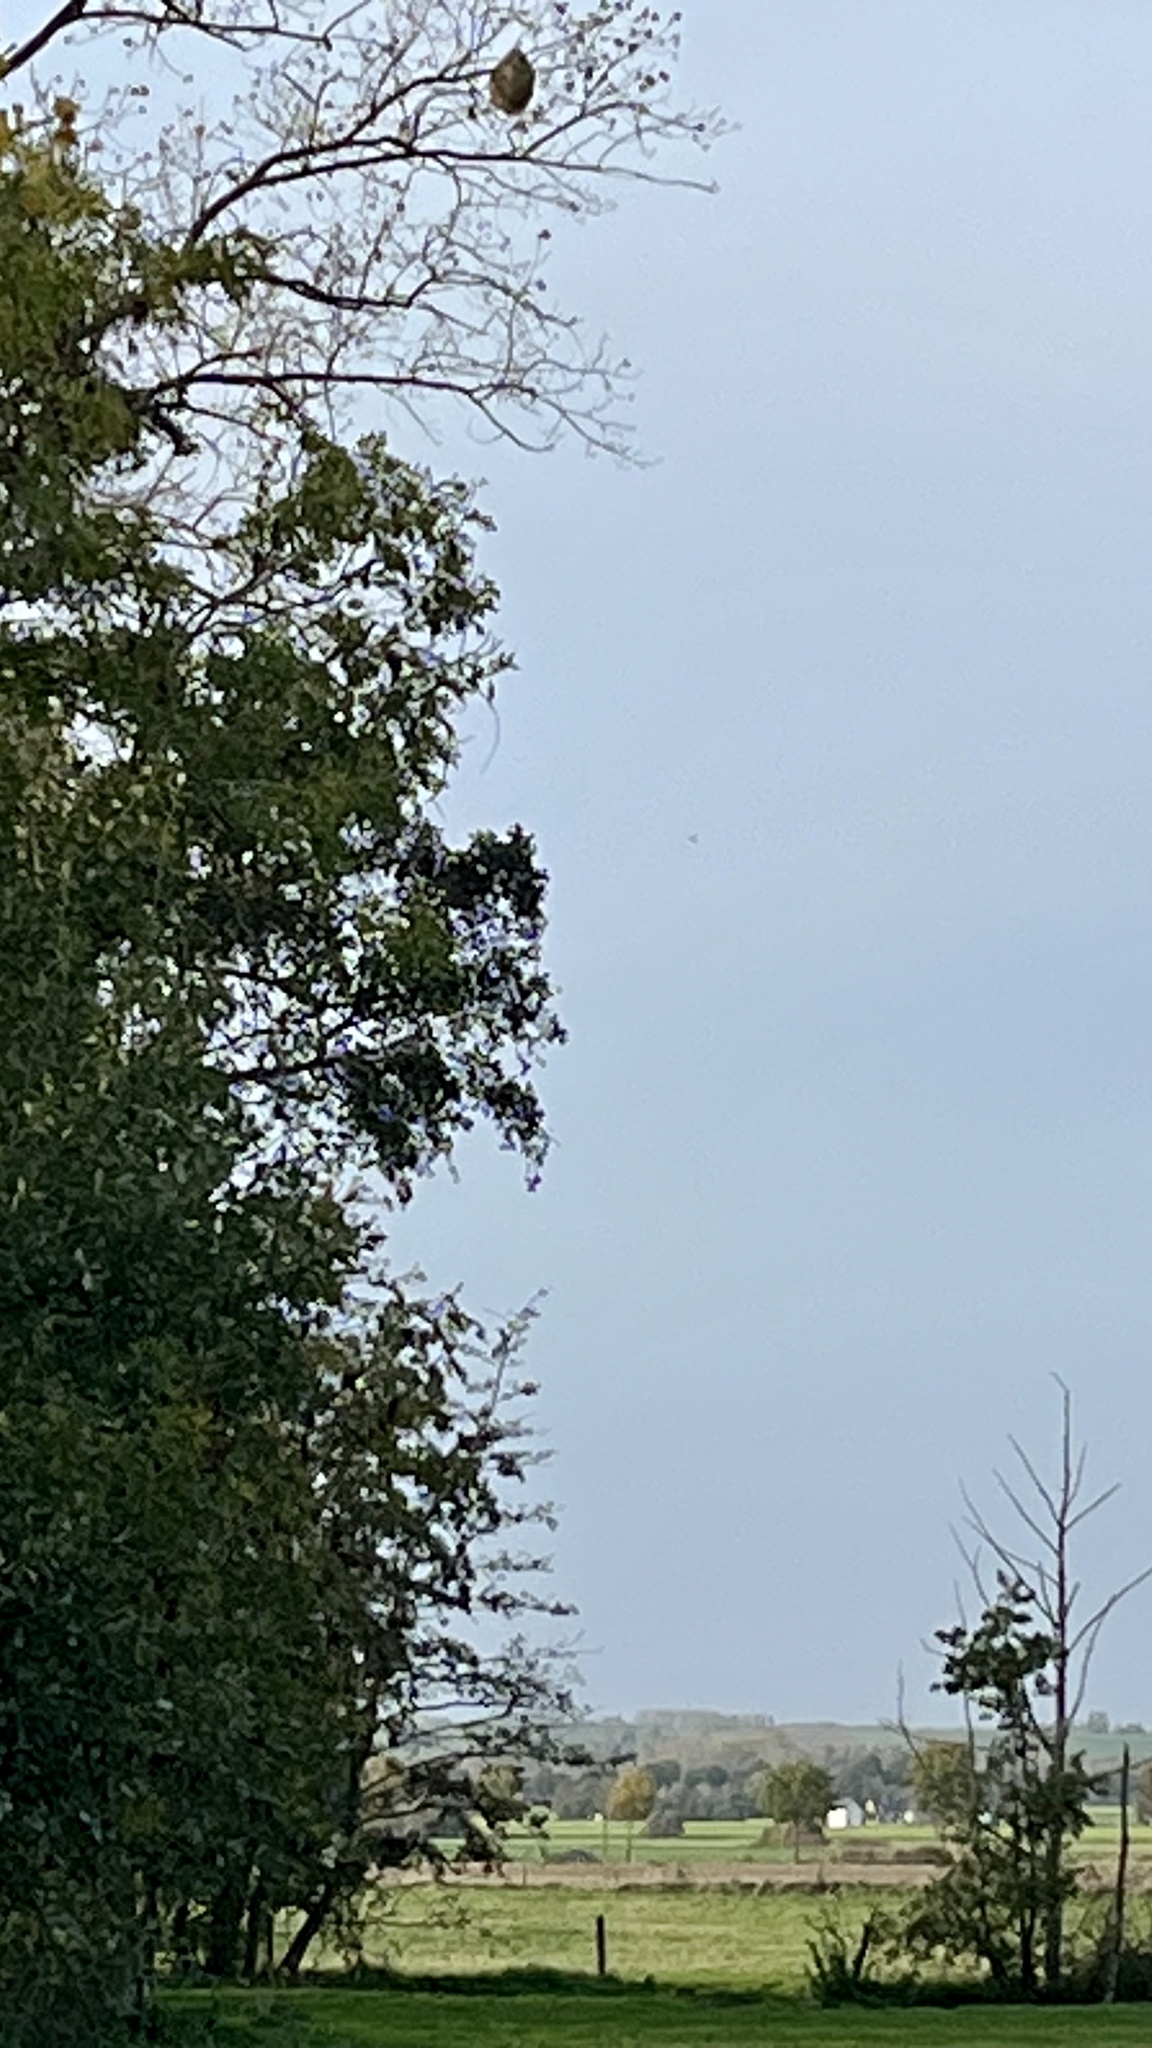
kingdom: Animalia
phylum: Arthropoda
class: Insecta
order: Hymenoptera
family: Vespidae
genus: Vespa
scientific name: Vespa velutina
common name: Asian hornet
